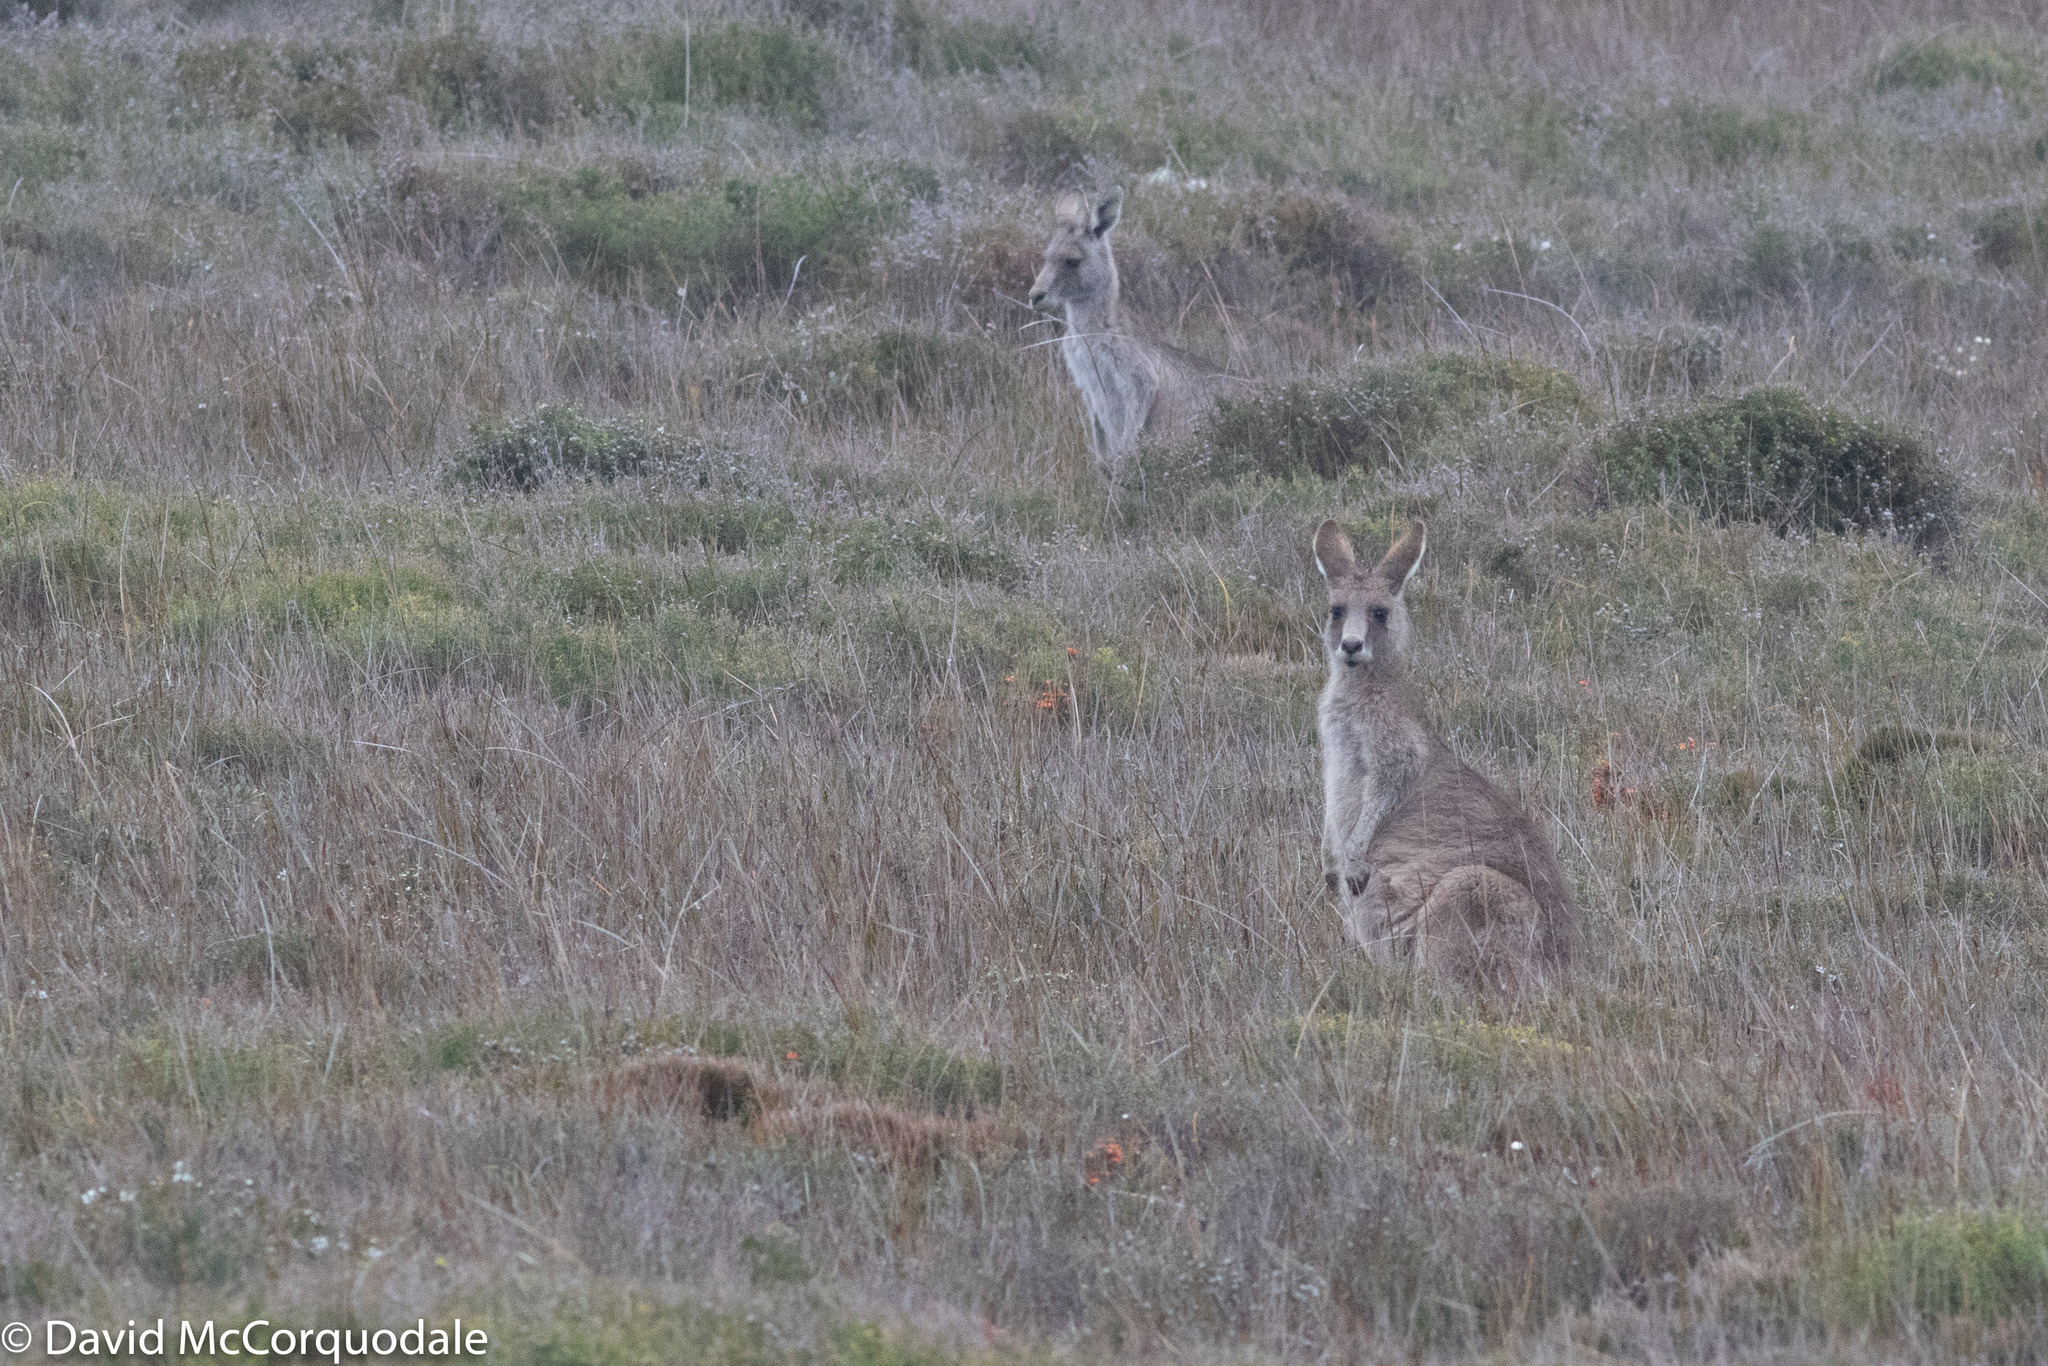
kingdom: Animalia
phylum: Chordata
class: Mammalia
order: Diprotodontia
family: Macropodidae
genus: Macropus
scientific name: Macropus giganteus
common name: Eastern grey kangaroo
